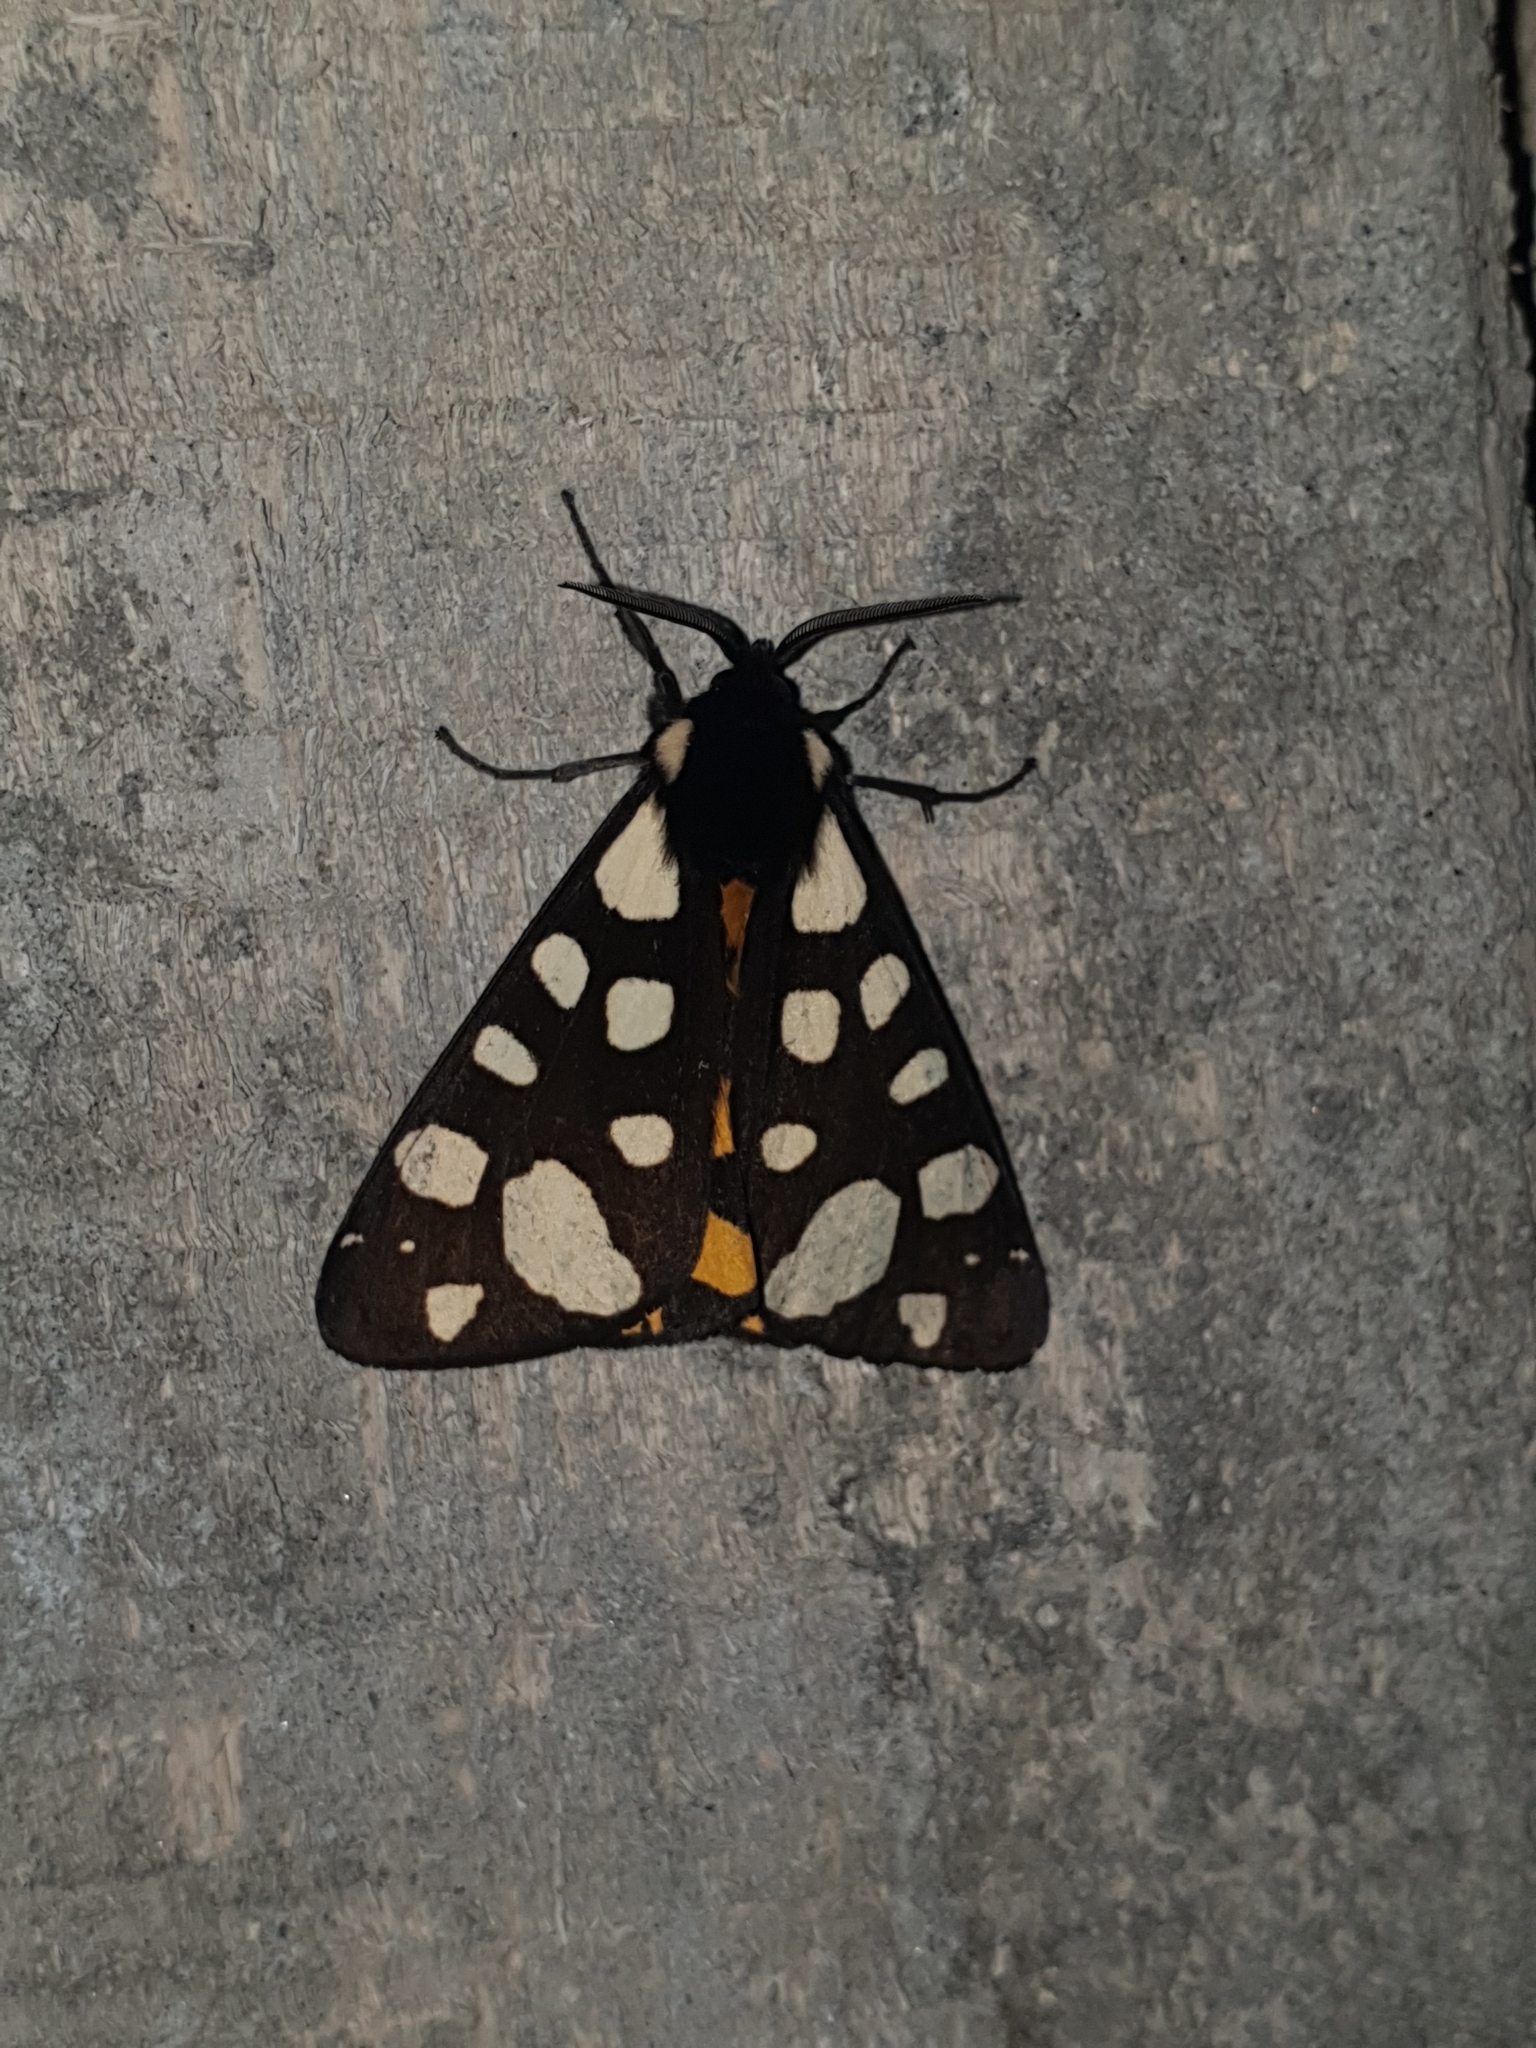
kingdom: Animalia
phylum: Arthropoda
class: Insecta
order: Lepidoptera
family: Erebidae
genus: Epicallia
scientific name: Epicallia villica
